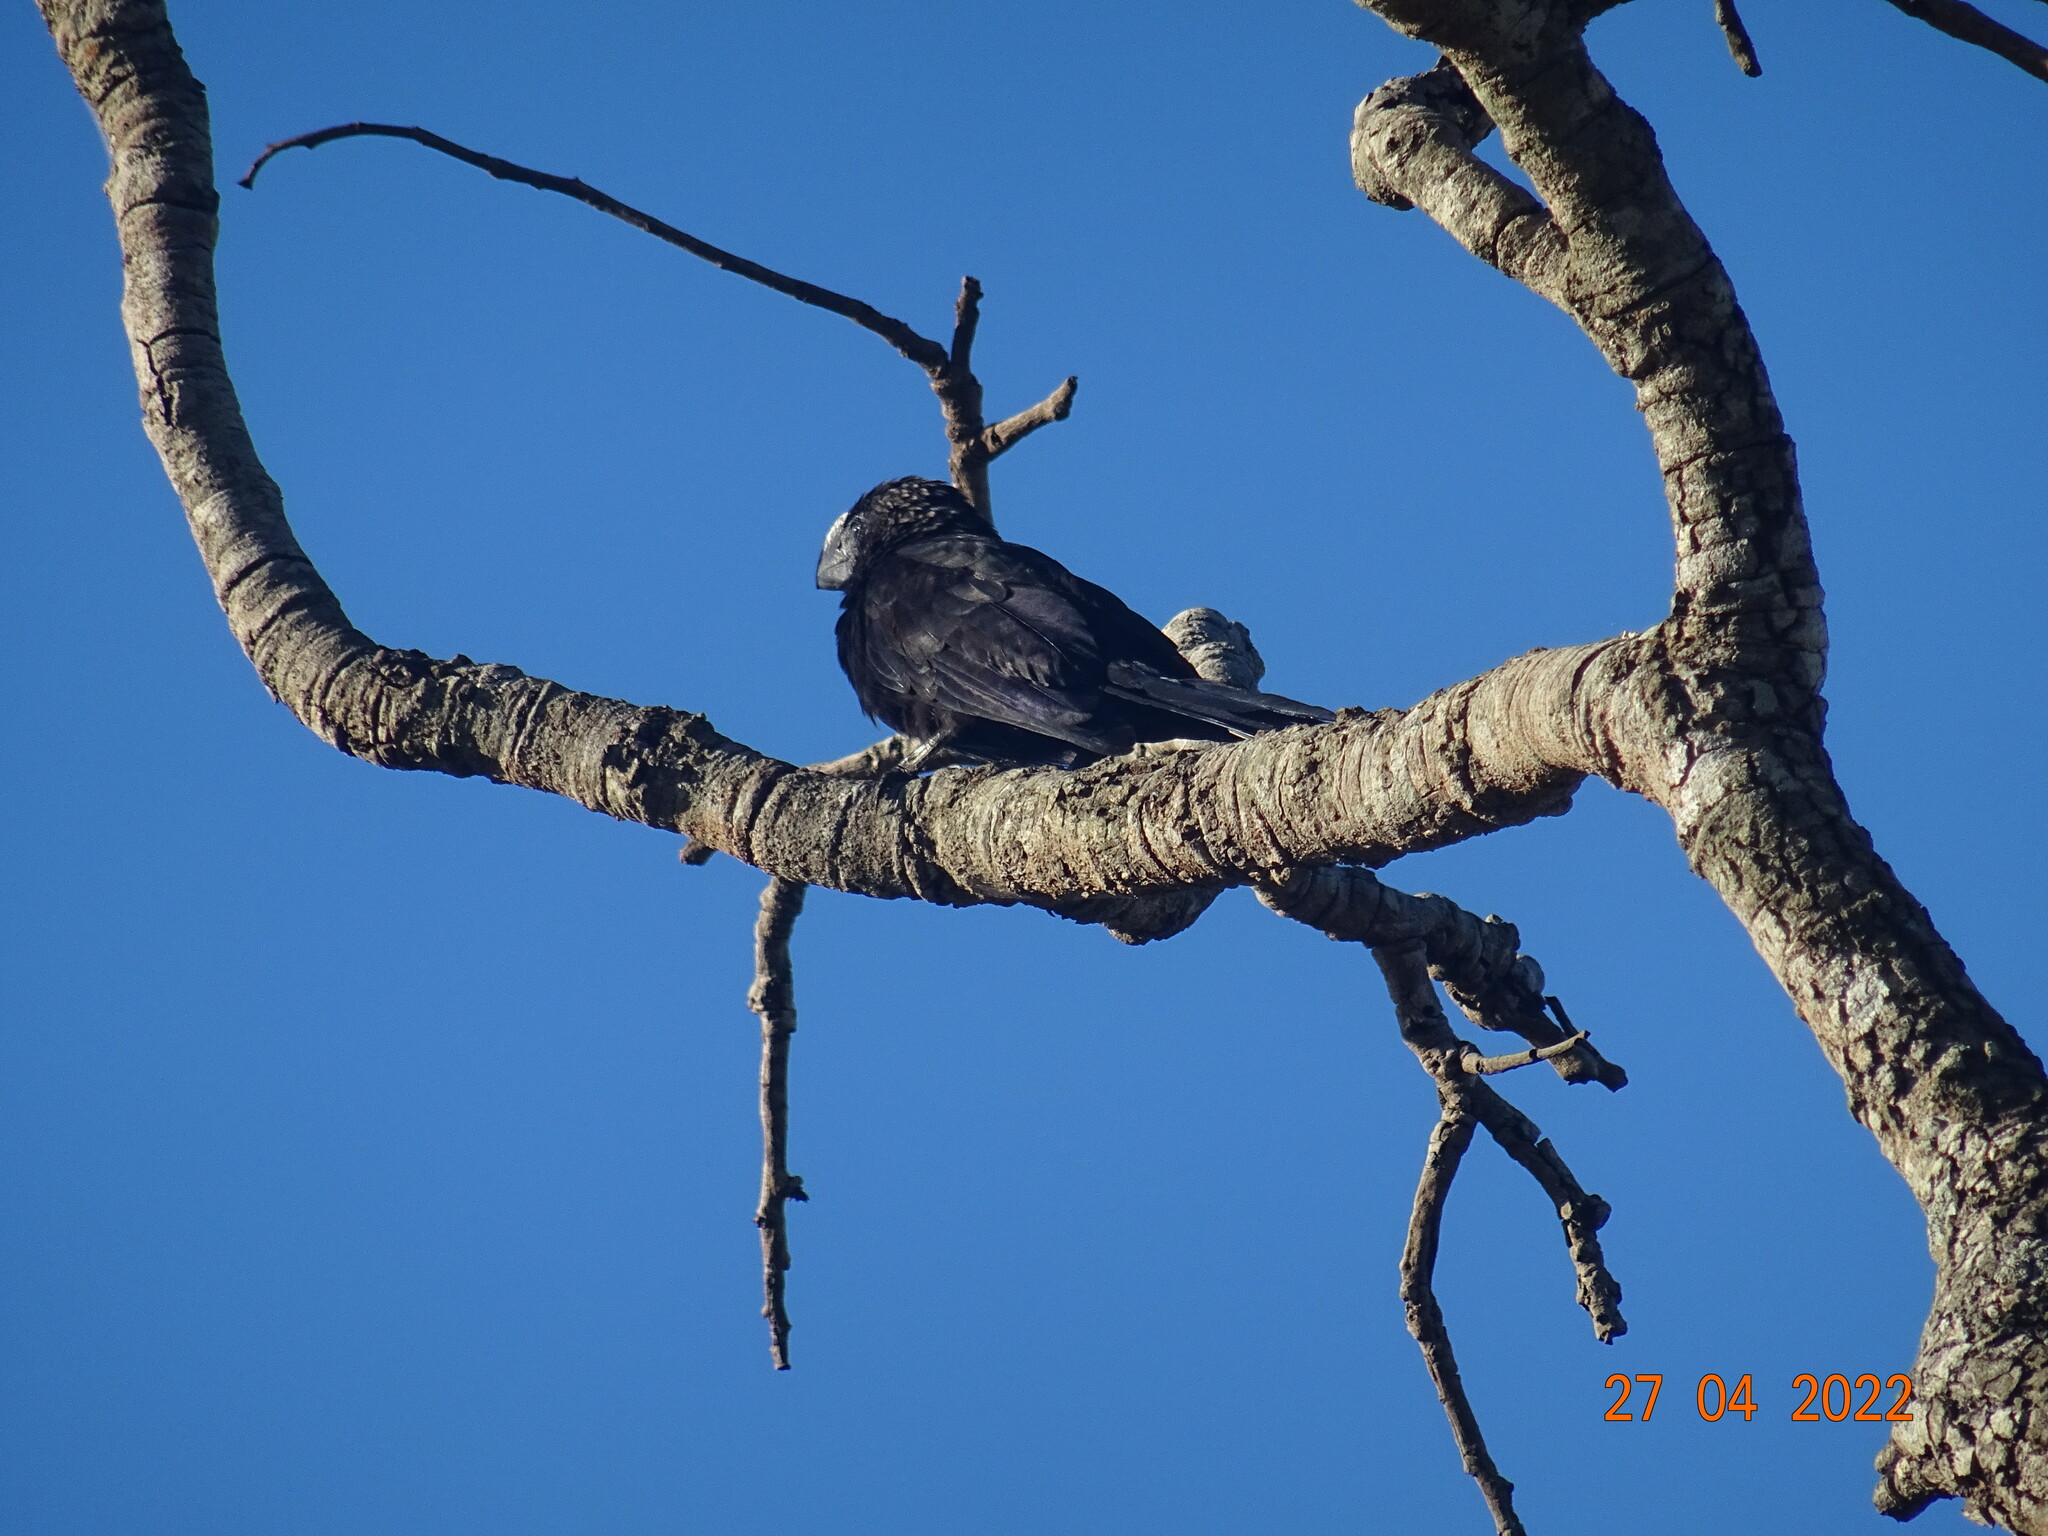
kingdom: Animalia
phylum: Chordata
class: Aves
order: Cuculiformes
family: Cuculidae
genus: Crotophaga
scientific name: Crotophaga ani
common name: Smooth-billed ani
